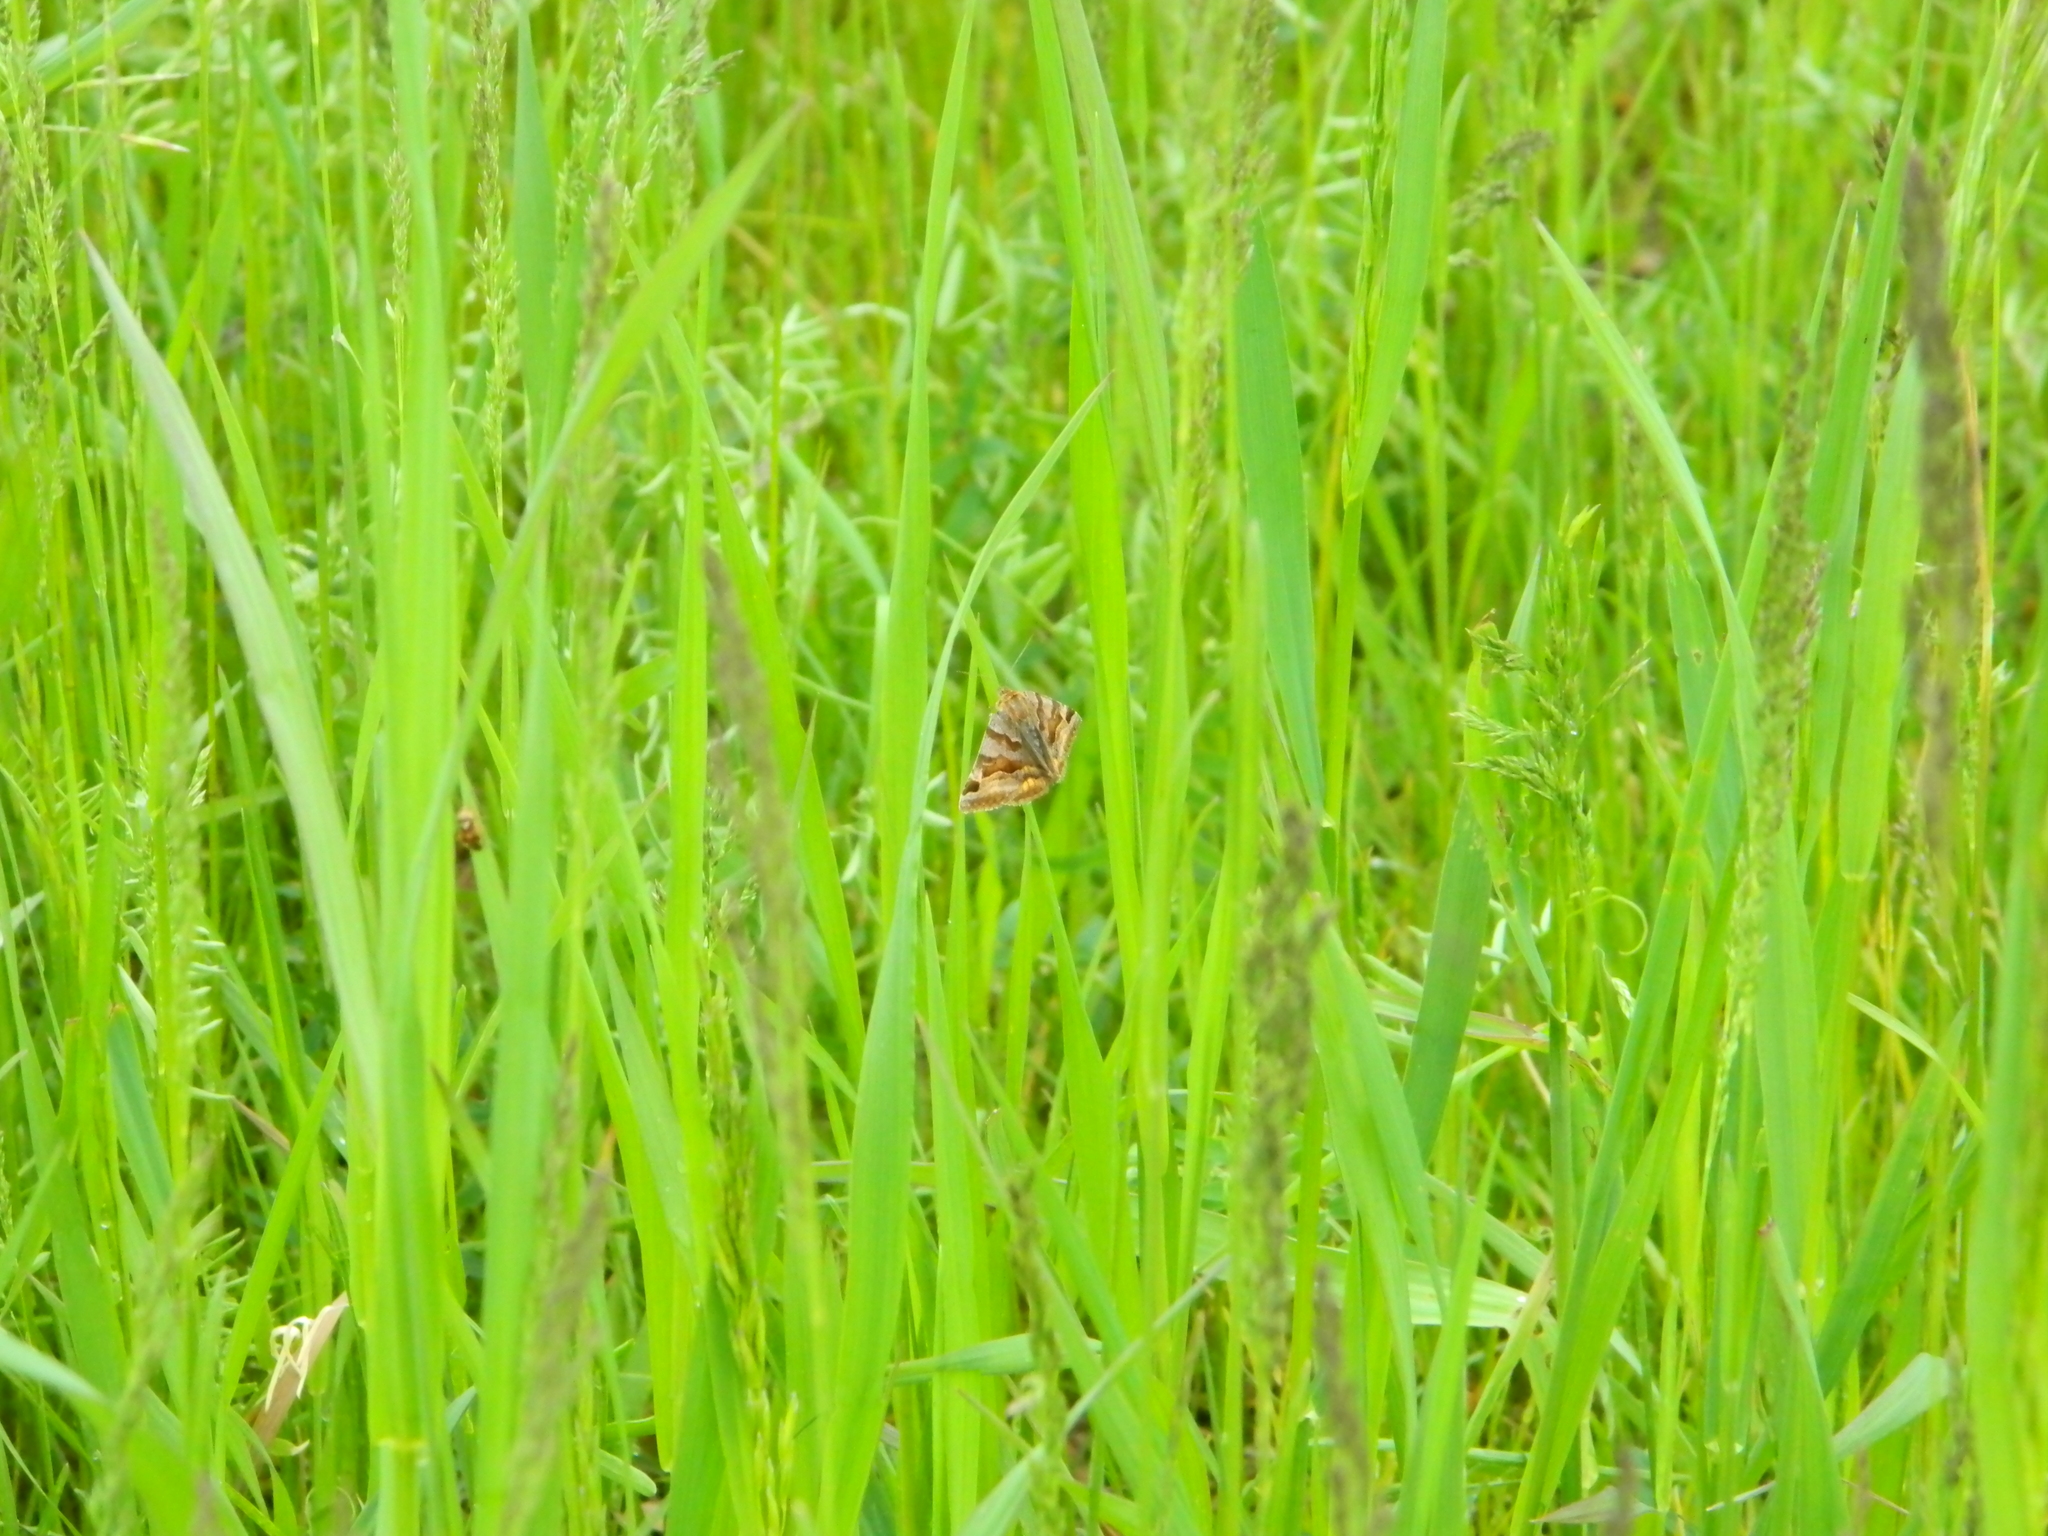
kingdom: Animalia
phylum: Arthropoda
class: Insecta
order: Lepidoptera
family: Erebidae
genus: Euclidia
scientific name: Euclidia glyphica
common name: Burnet companion
